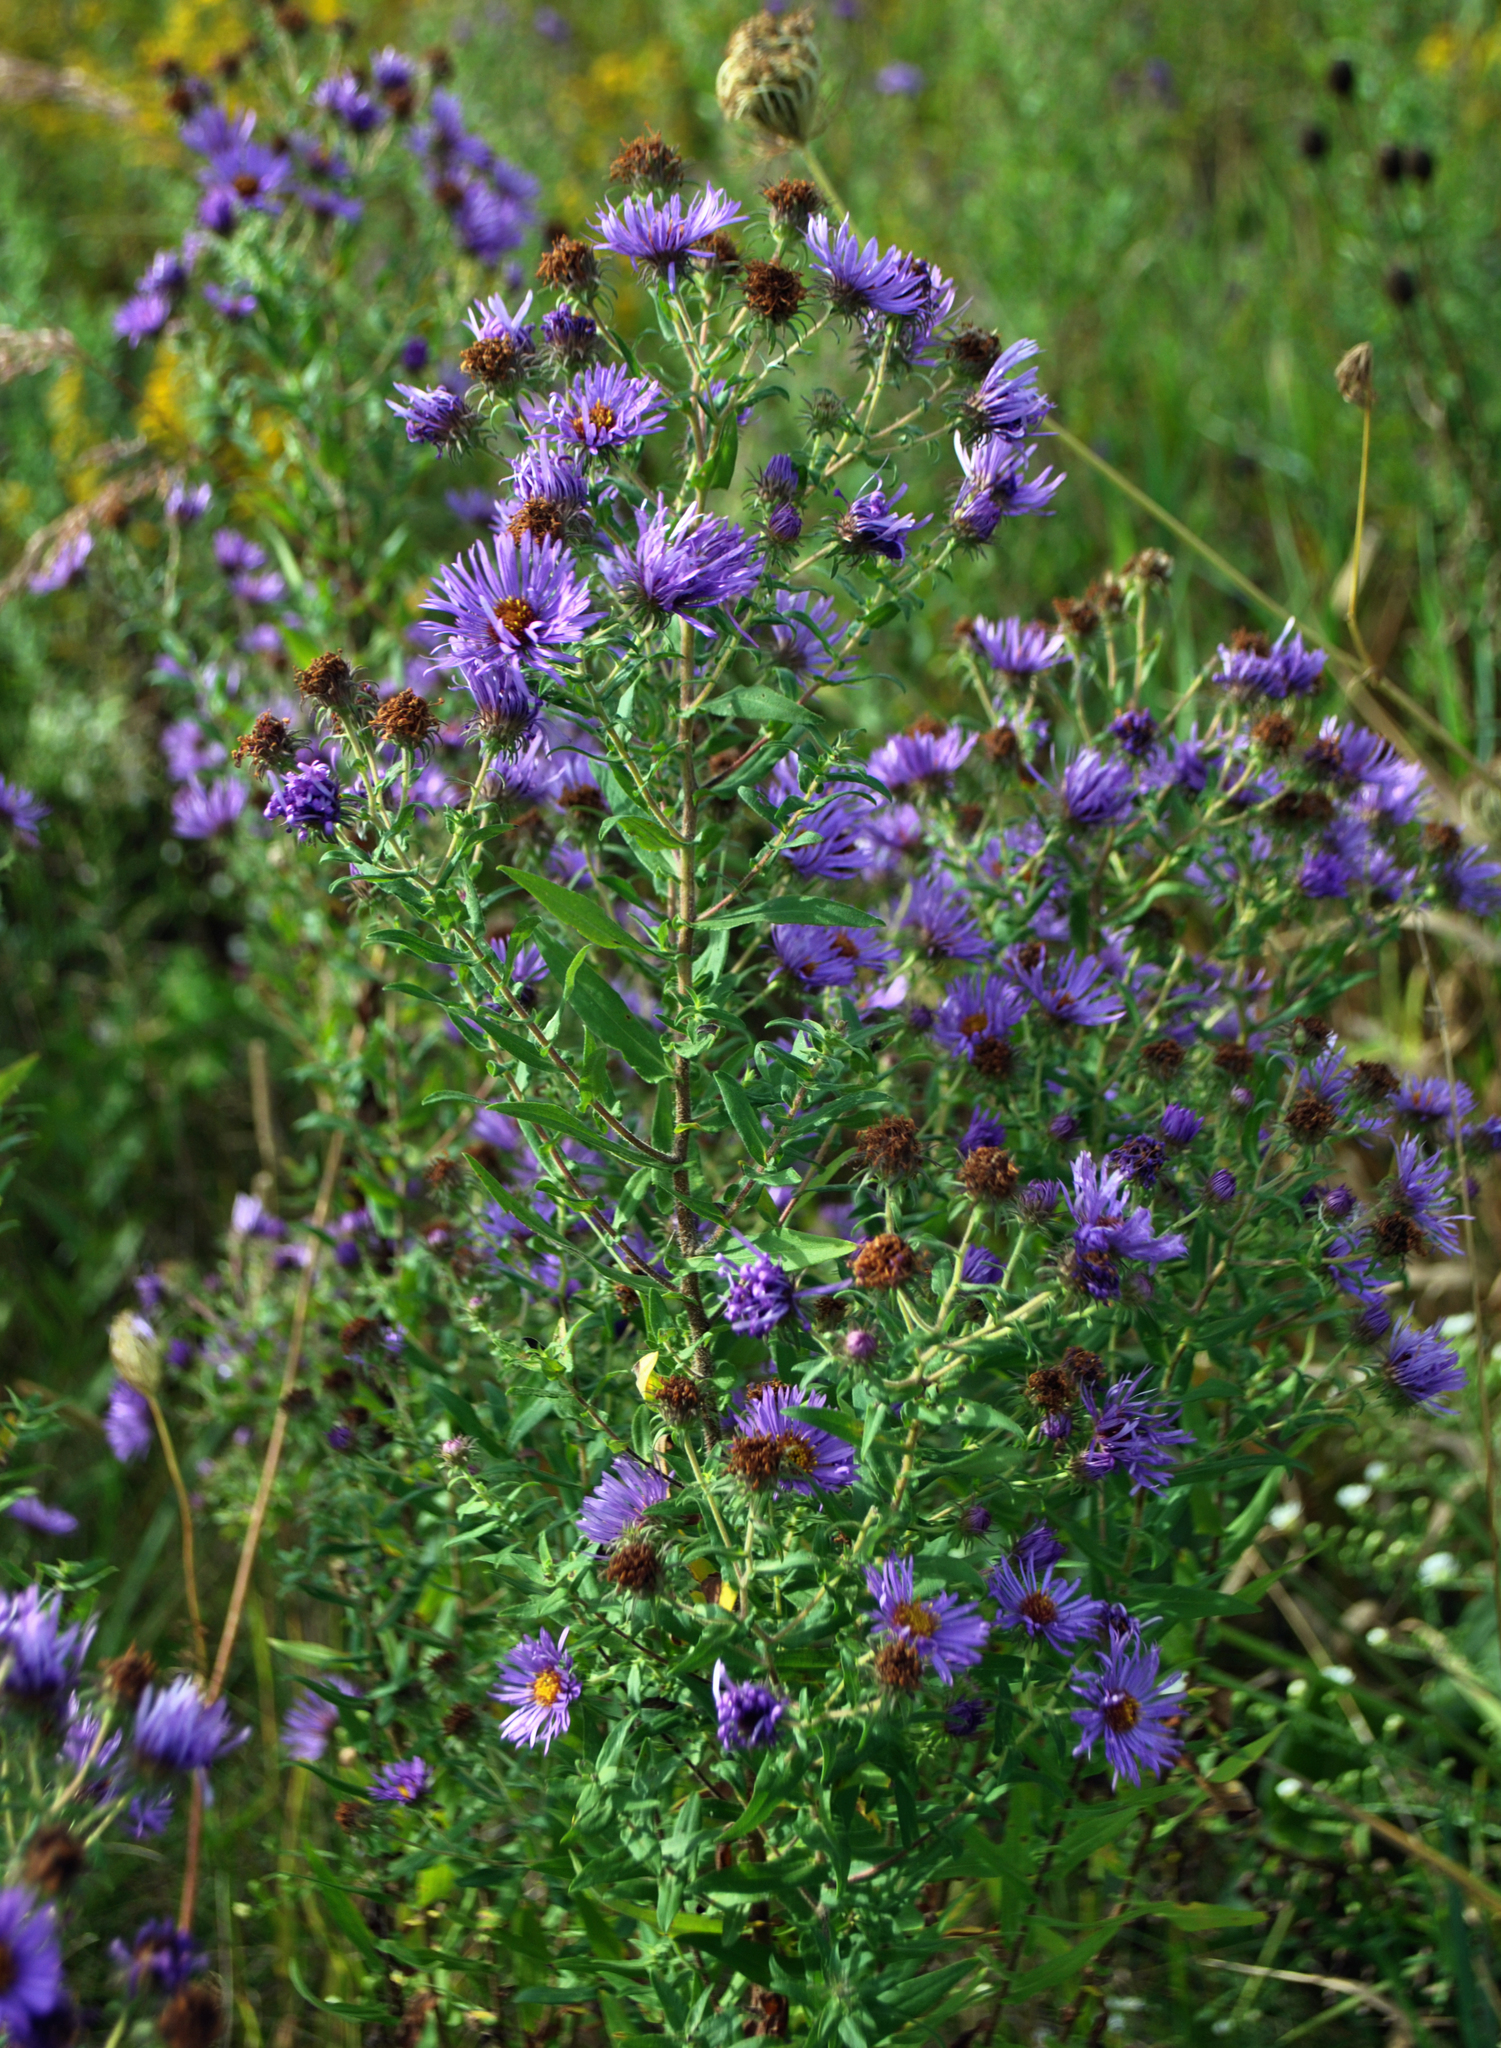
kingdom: Plantae
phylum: Tracheophyta
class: Magnoliopsida
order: Asterales
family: Asteraceae
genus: Symphyotrichum
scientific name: Symphyotrichum novae-angliae
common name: Michaelmas daisy
